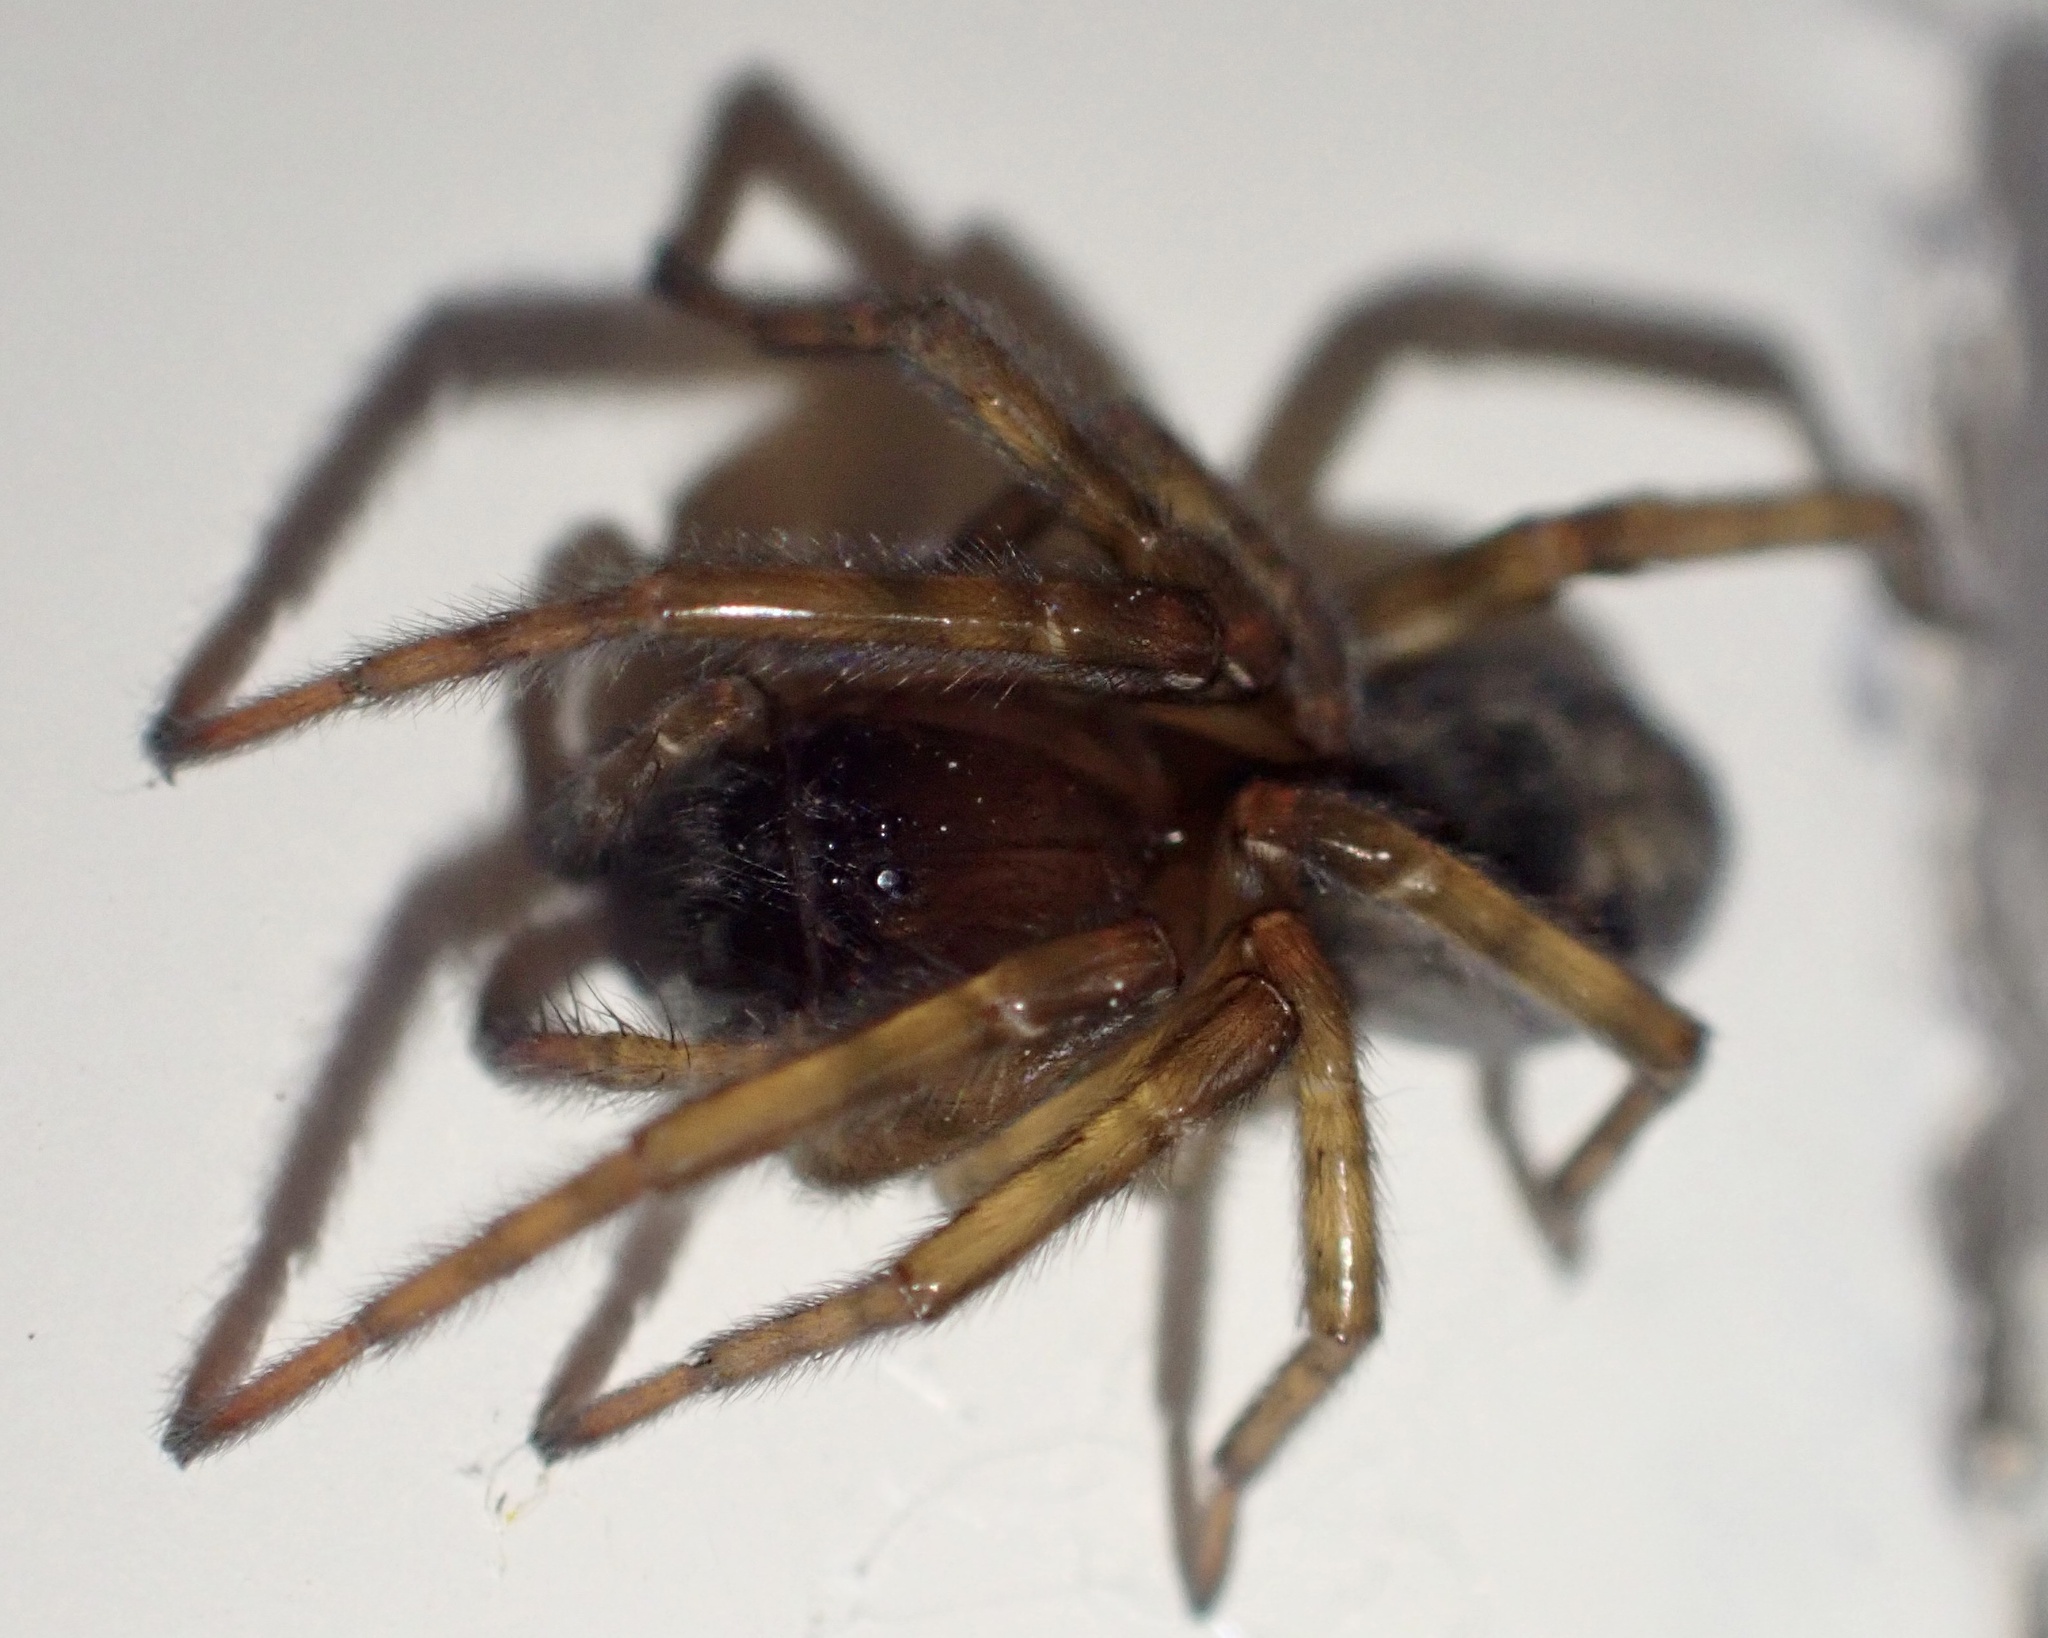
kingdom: Animalia
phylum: Arthropoda
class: Arachnida
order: Araneae
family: Amaurobiidae
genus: Amaurobius
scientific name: Amaurobius similis
